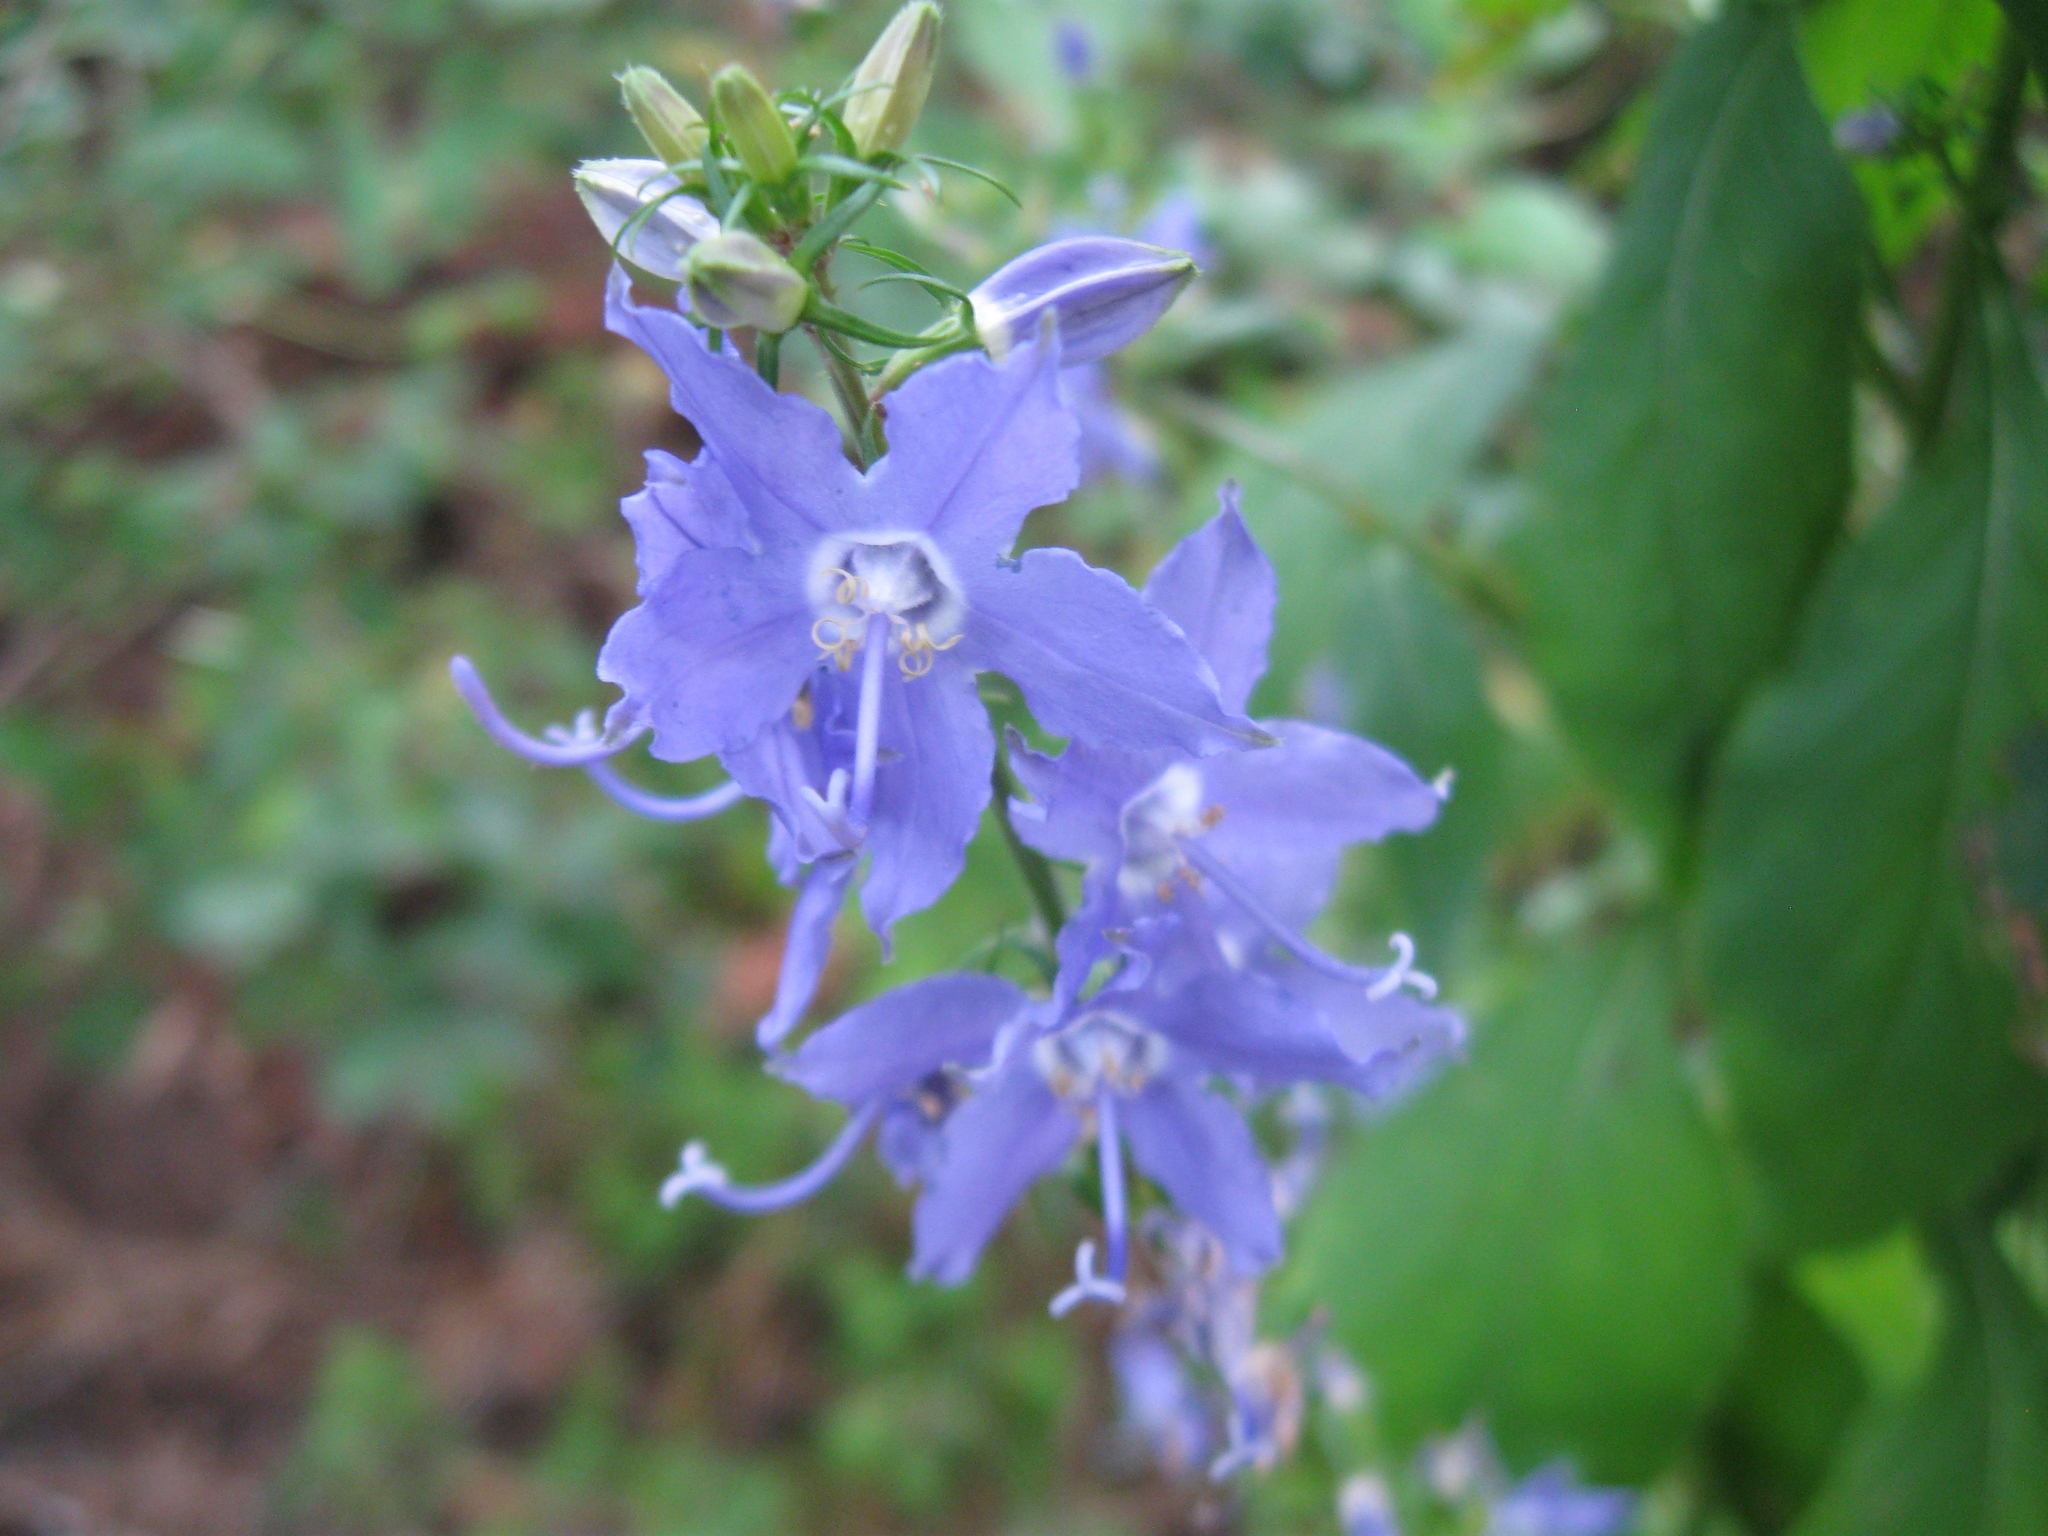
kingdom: Plantae
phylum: Tracheophyta
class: Magnoliopsida
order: Asterales
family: Campanulaceae
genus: Campanulastrum
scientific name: Campanulastrum americanum
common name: American bellflower
